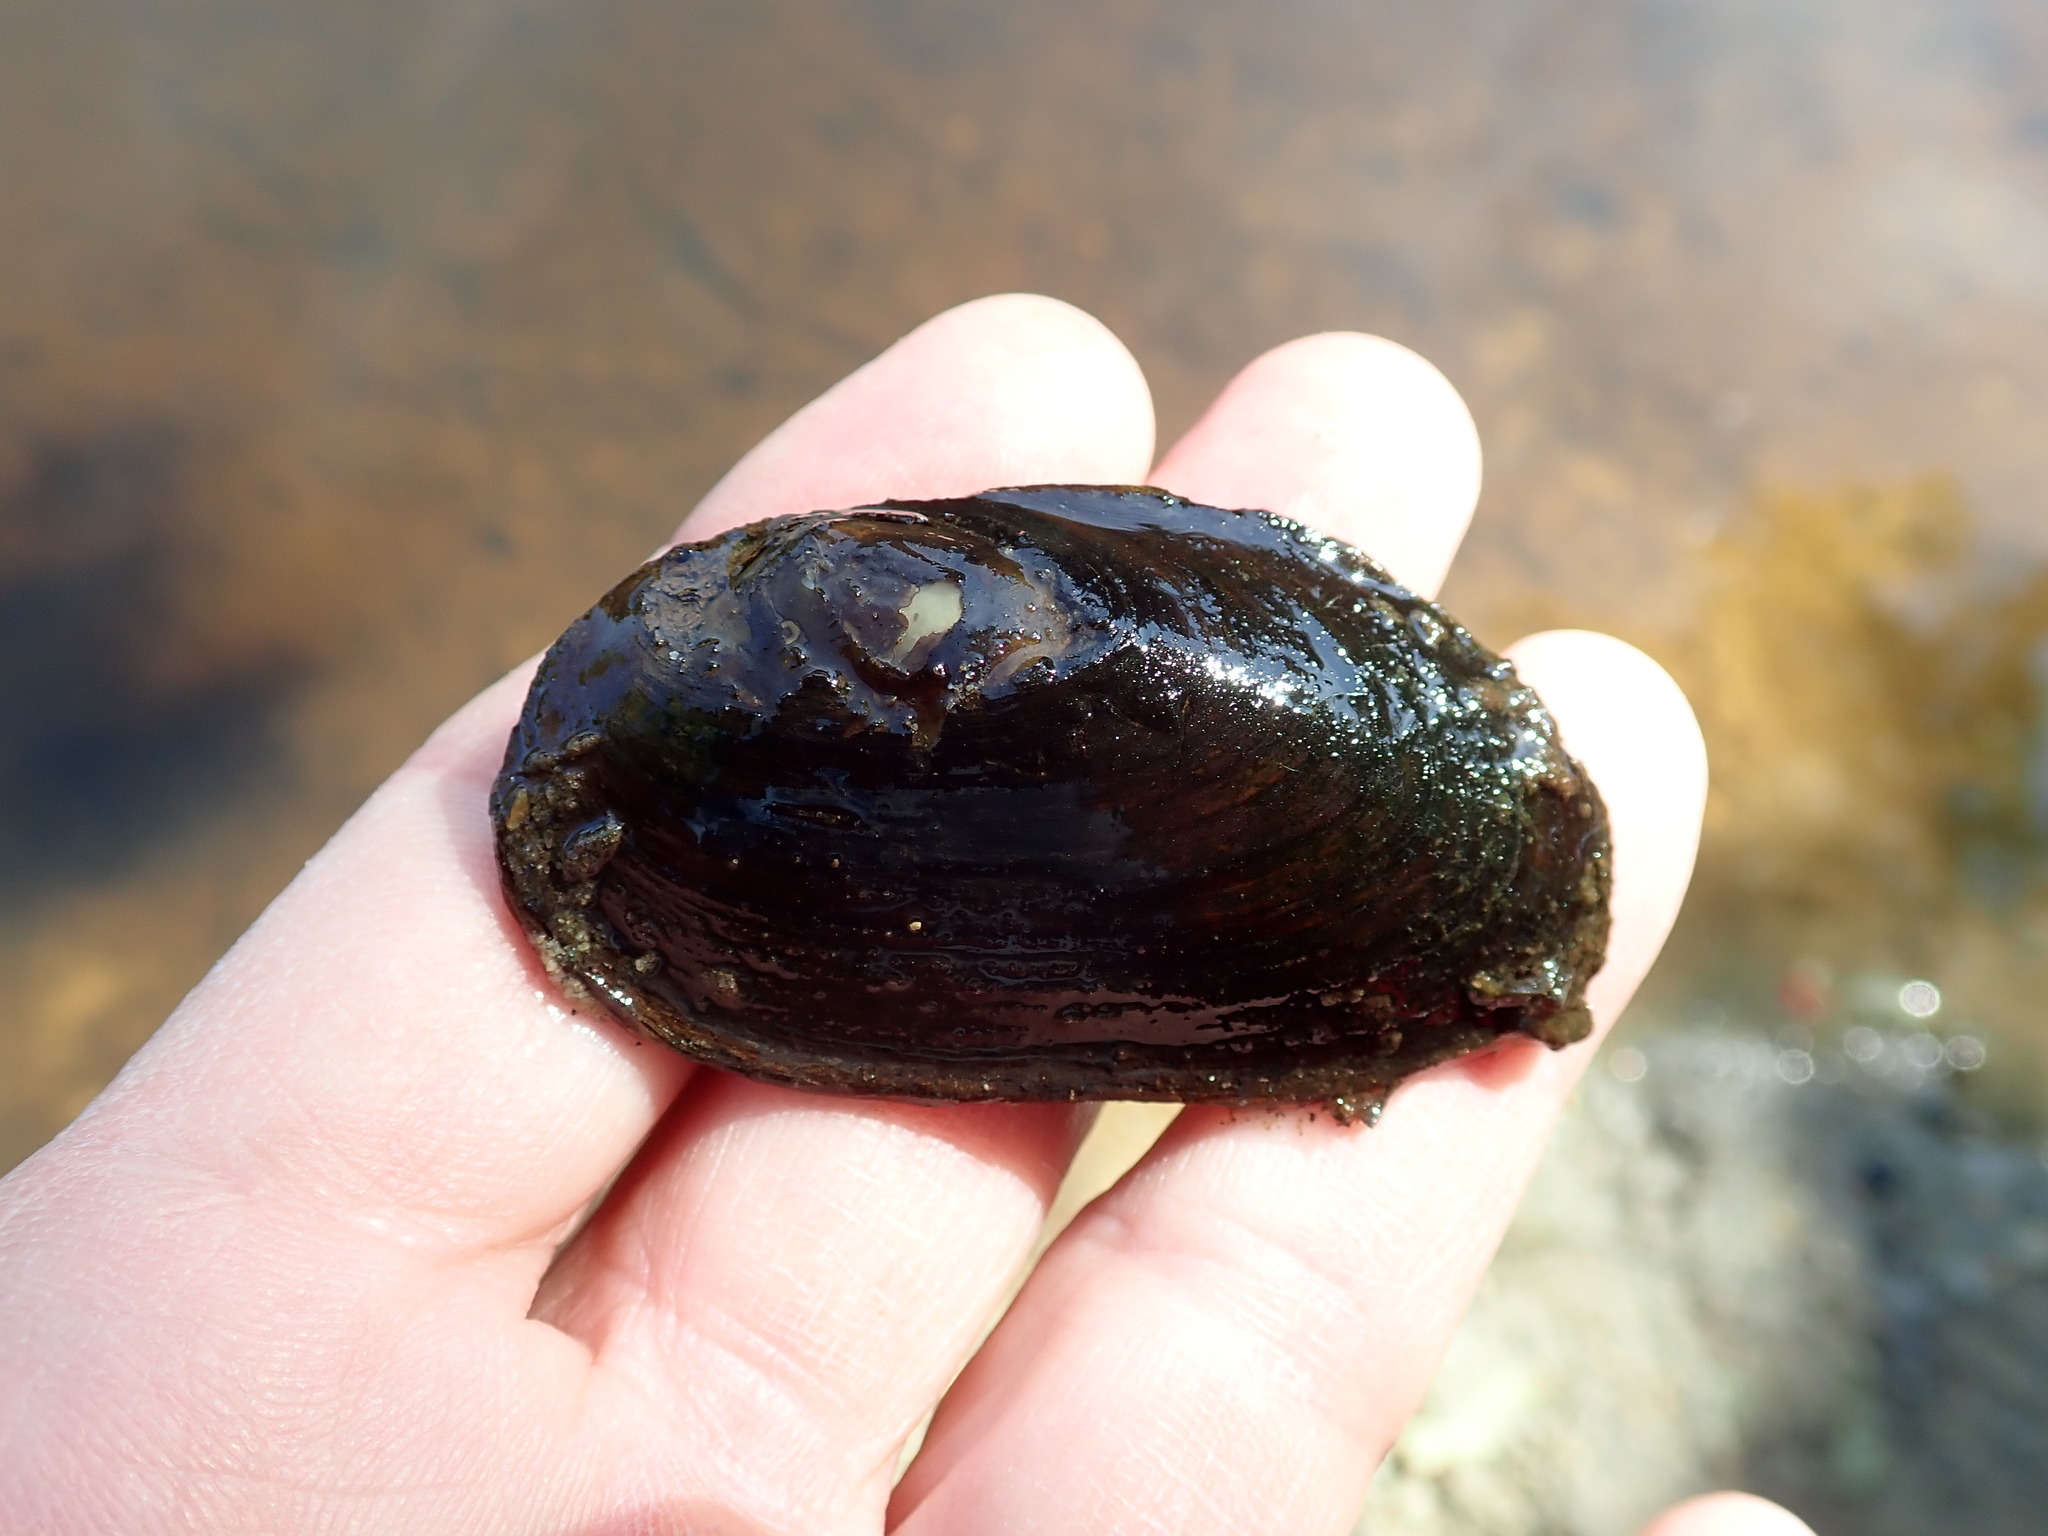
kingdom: Animalia
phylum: Mollusca
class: Bivalvia
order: Unionida
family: Unionidae
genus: Elliptio
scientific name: Elliptio complanata
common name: Eastern elliptio
